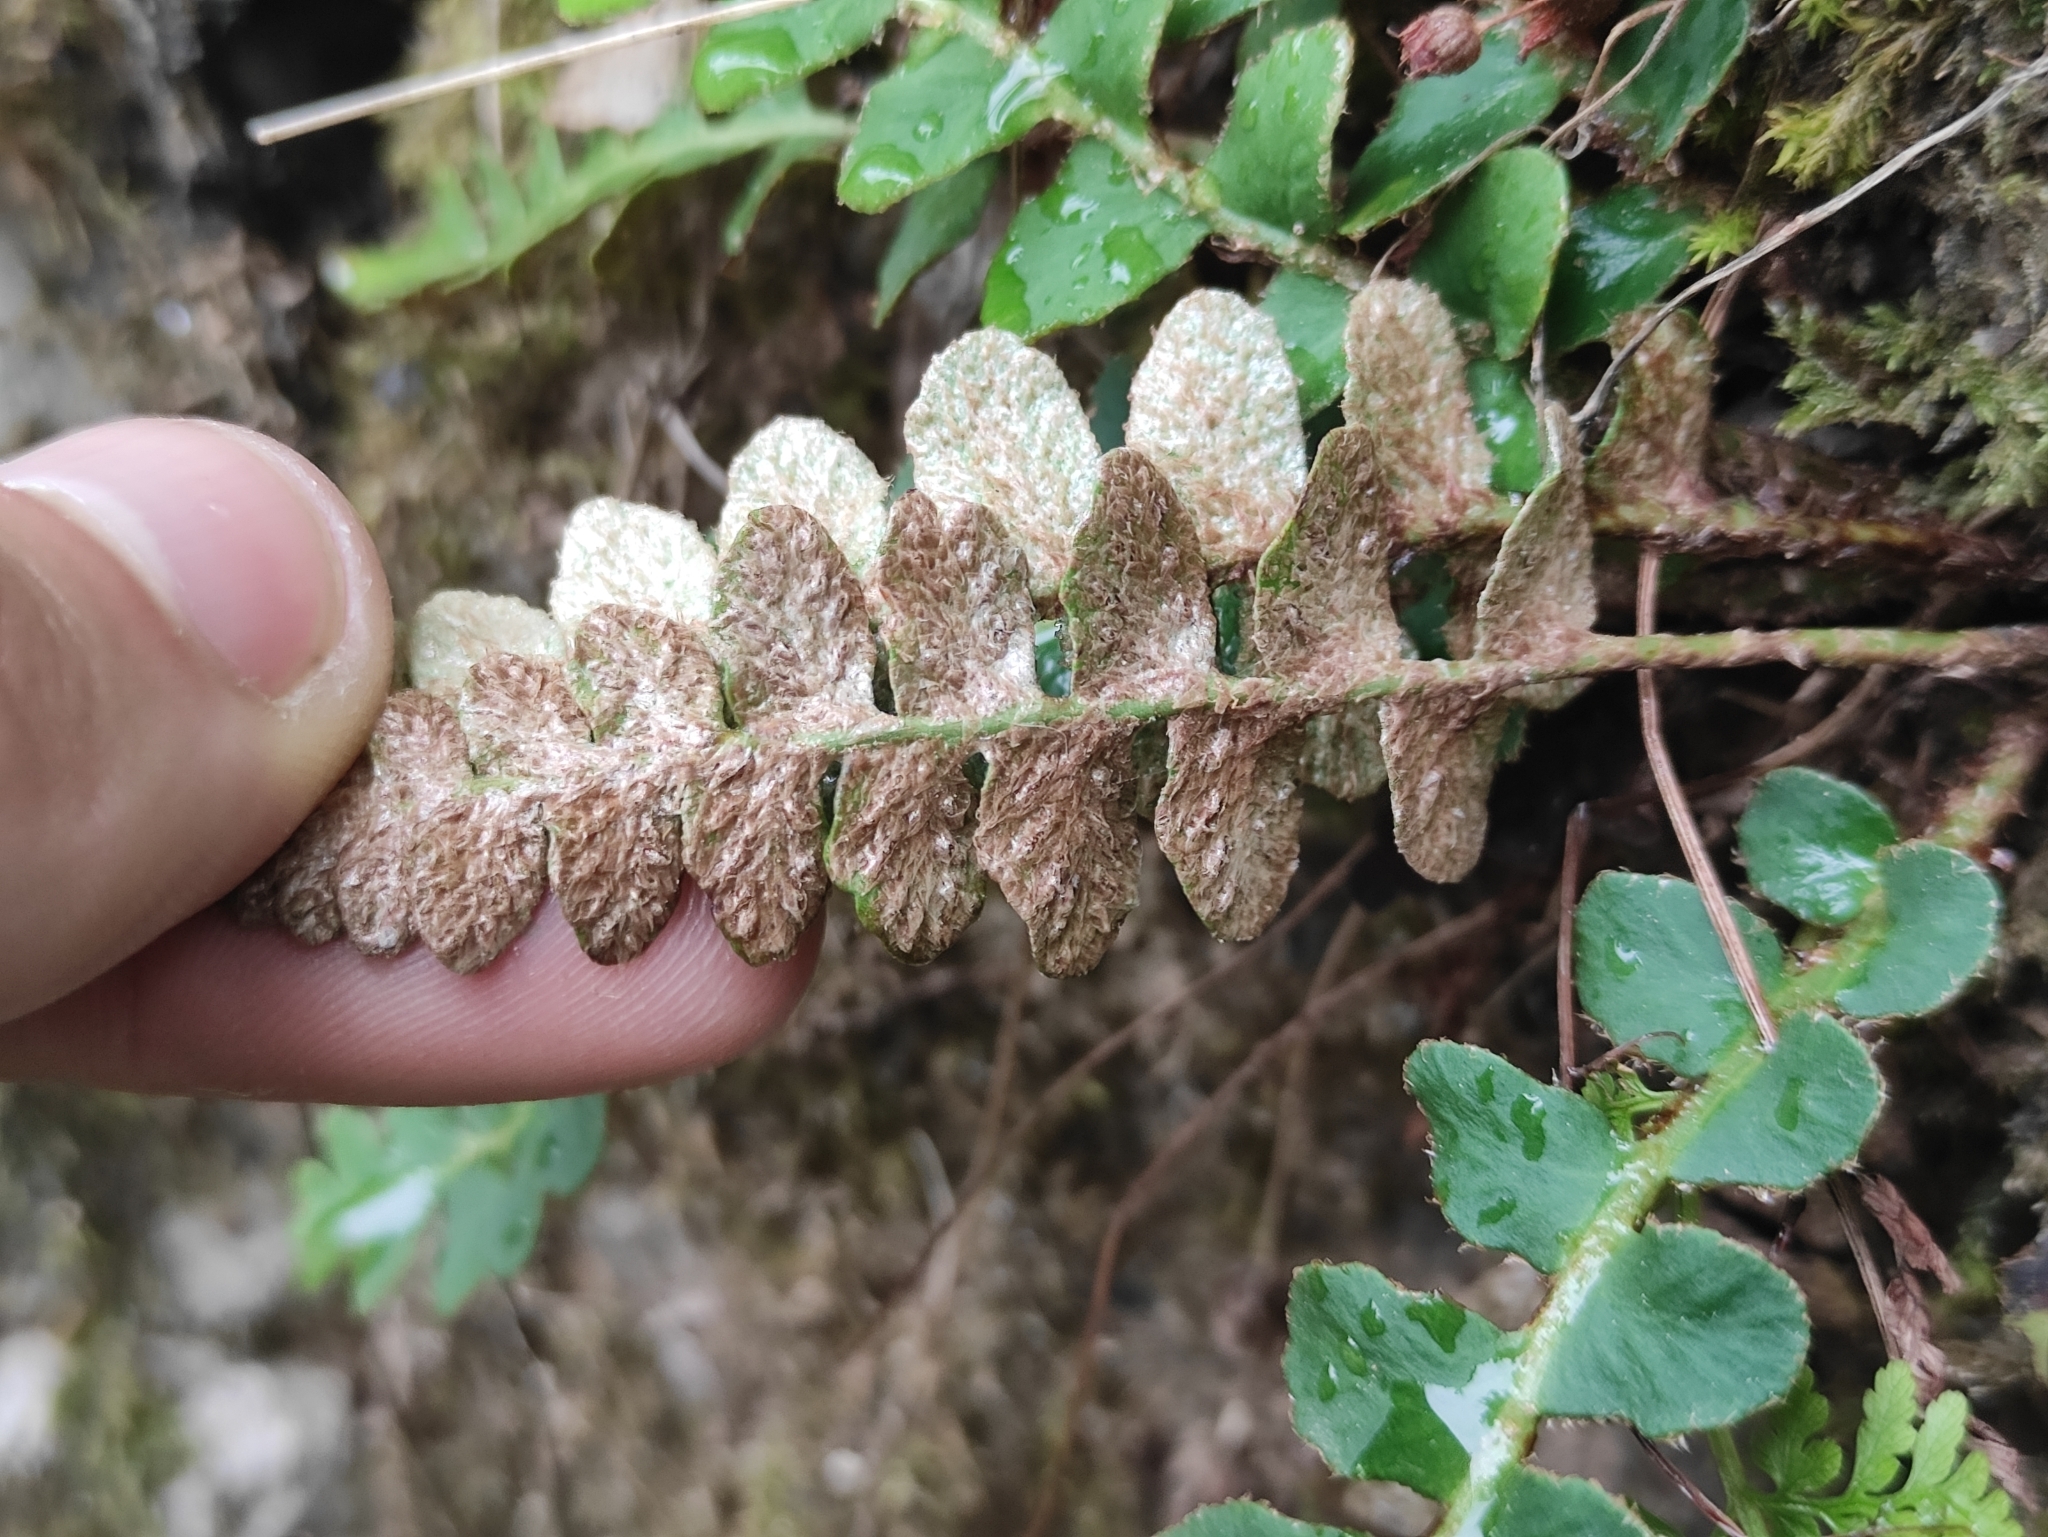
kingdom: Plantae
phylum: Tracheophyta
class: Polypodiopsida
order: Polypodiales
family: Aspleniaceae
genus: Asplenium
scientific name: Asplenium ceterach
